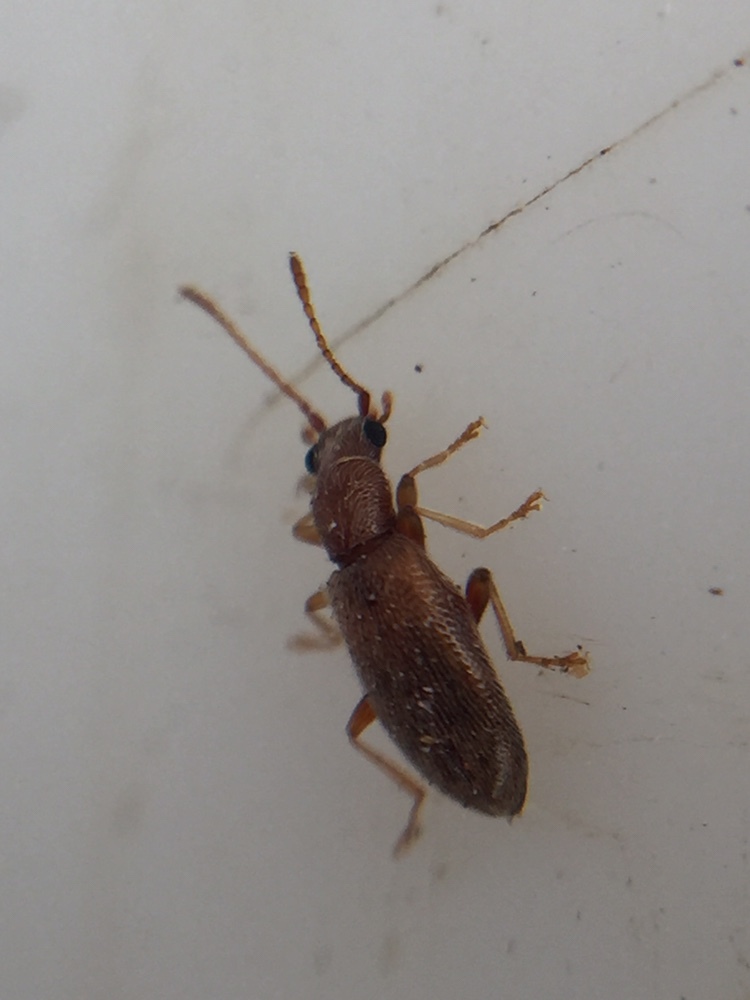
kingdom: Animalia
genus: Lagrioda
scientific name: Lagrioda brounii
